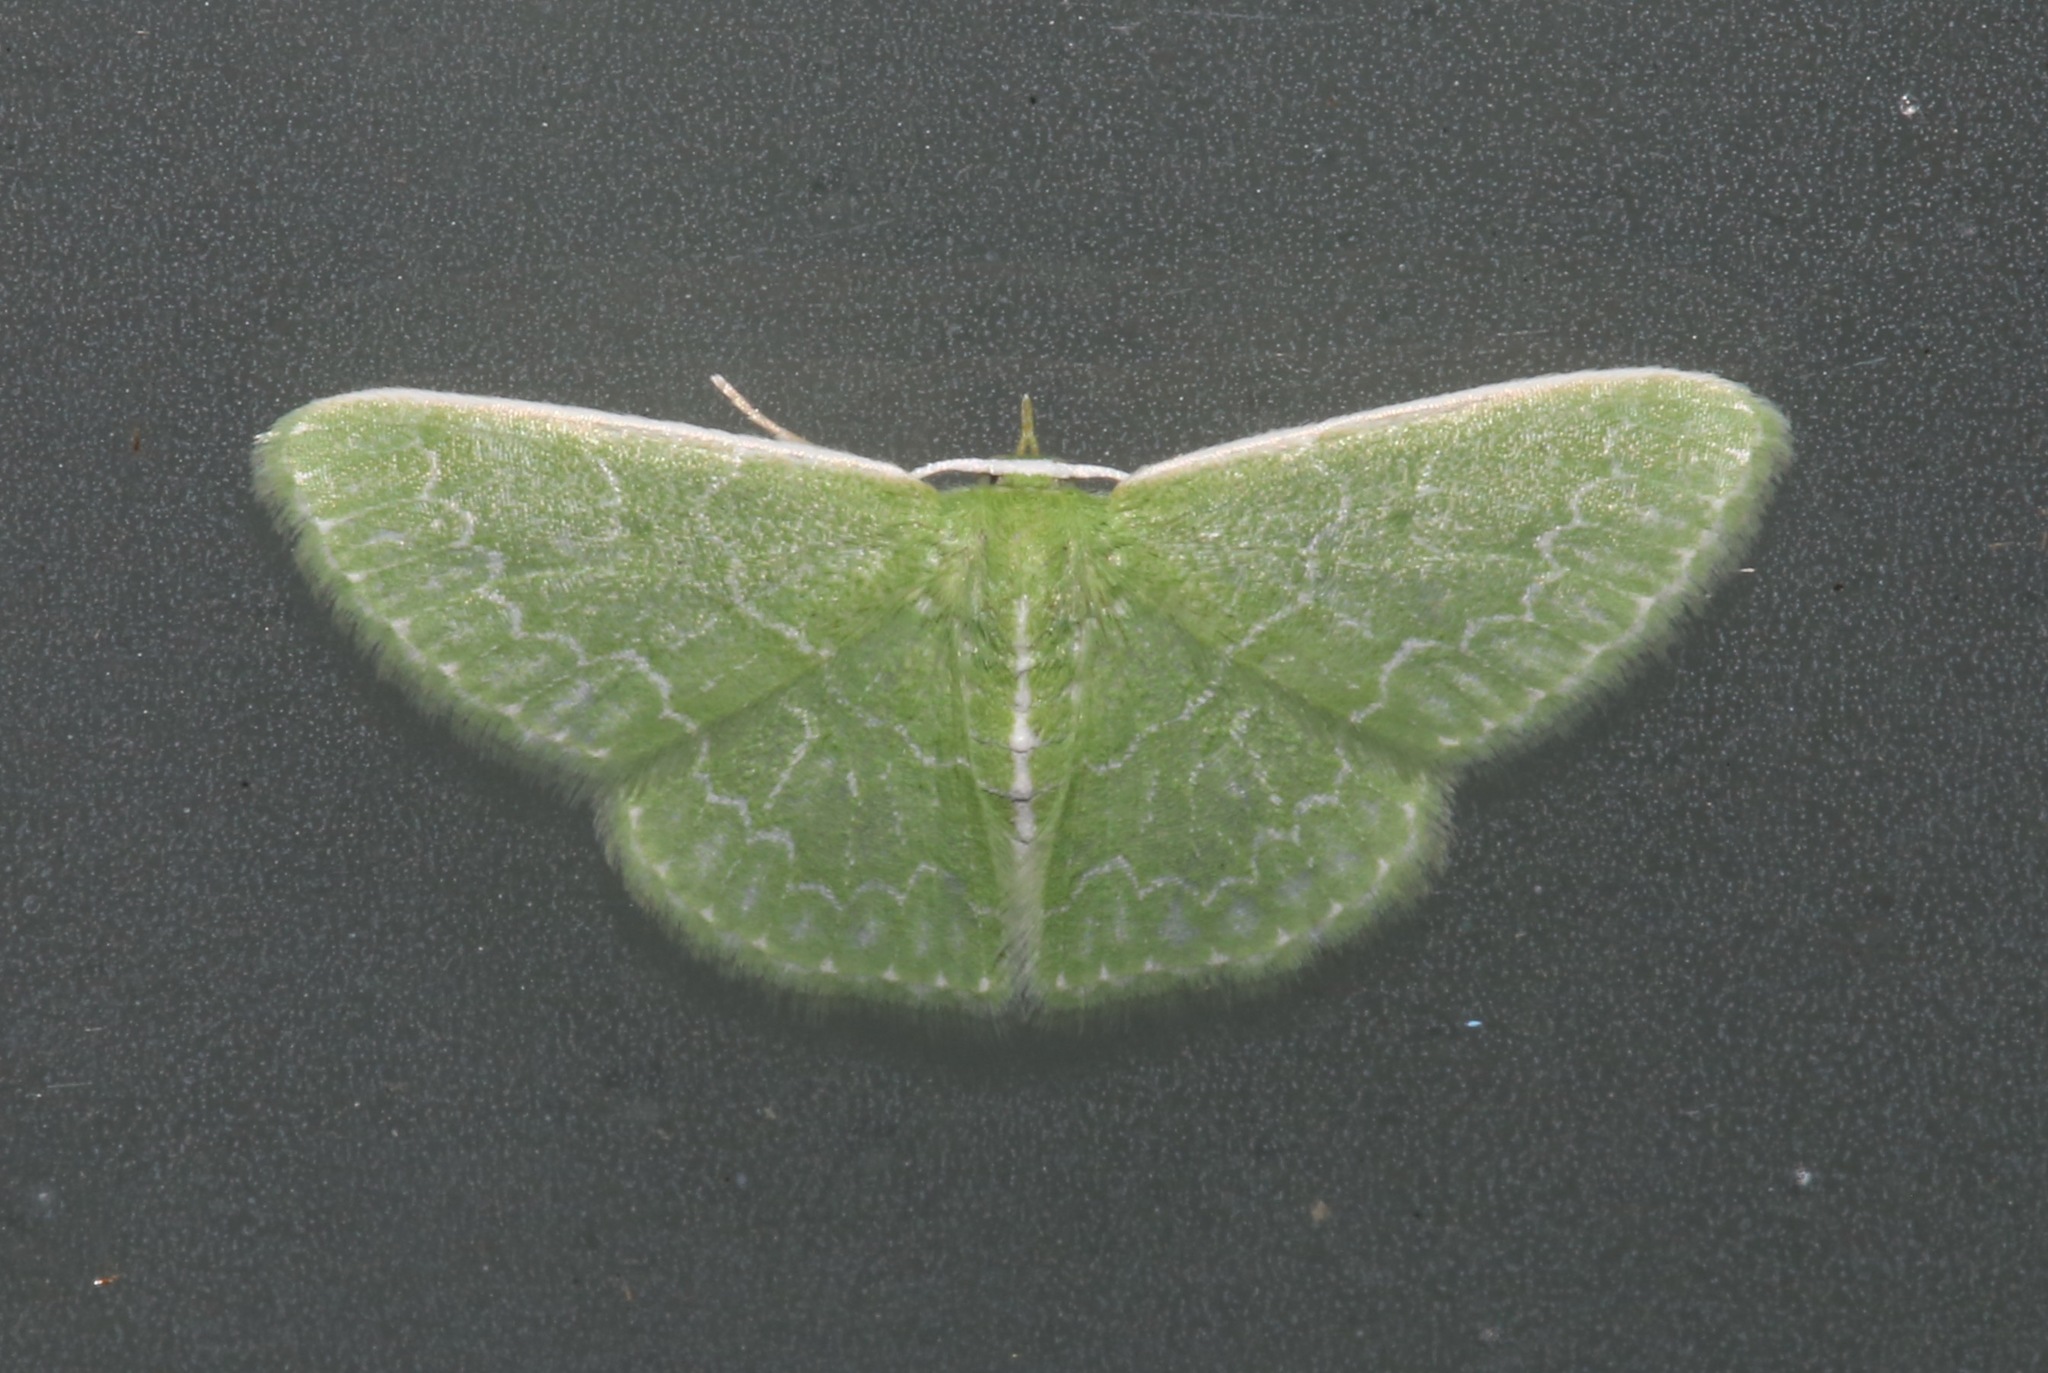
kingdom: Animalia
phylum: Arthropoda
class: Insecta
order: Lepidoptera
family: Geometridae
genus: Synchlora
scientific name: Synchlora frondaria
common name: Southern emerald
